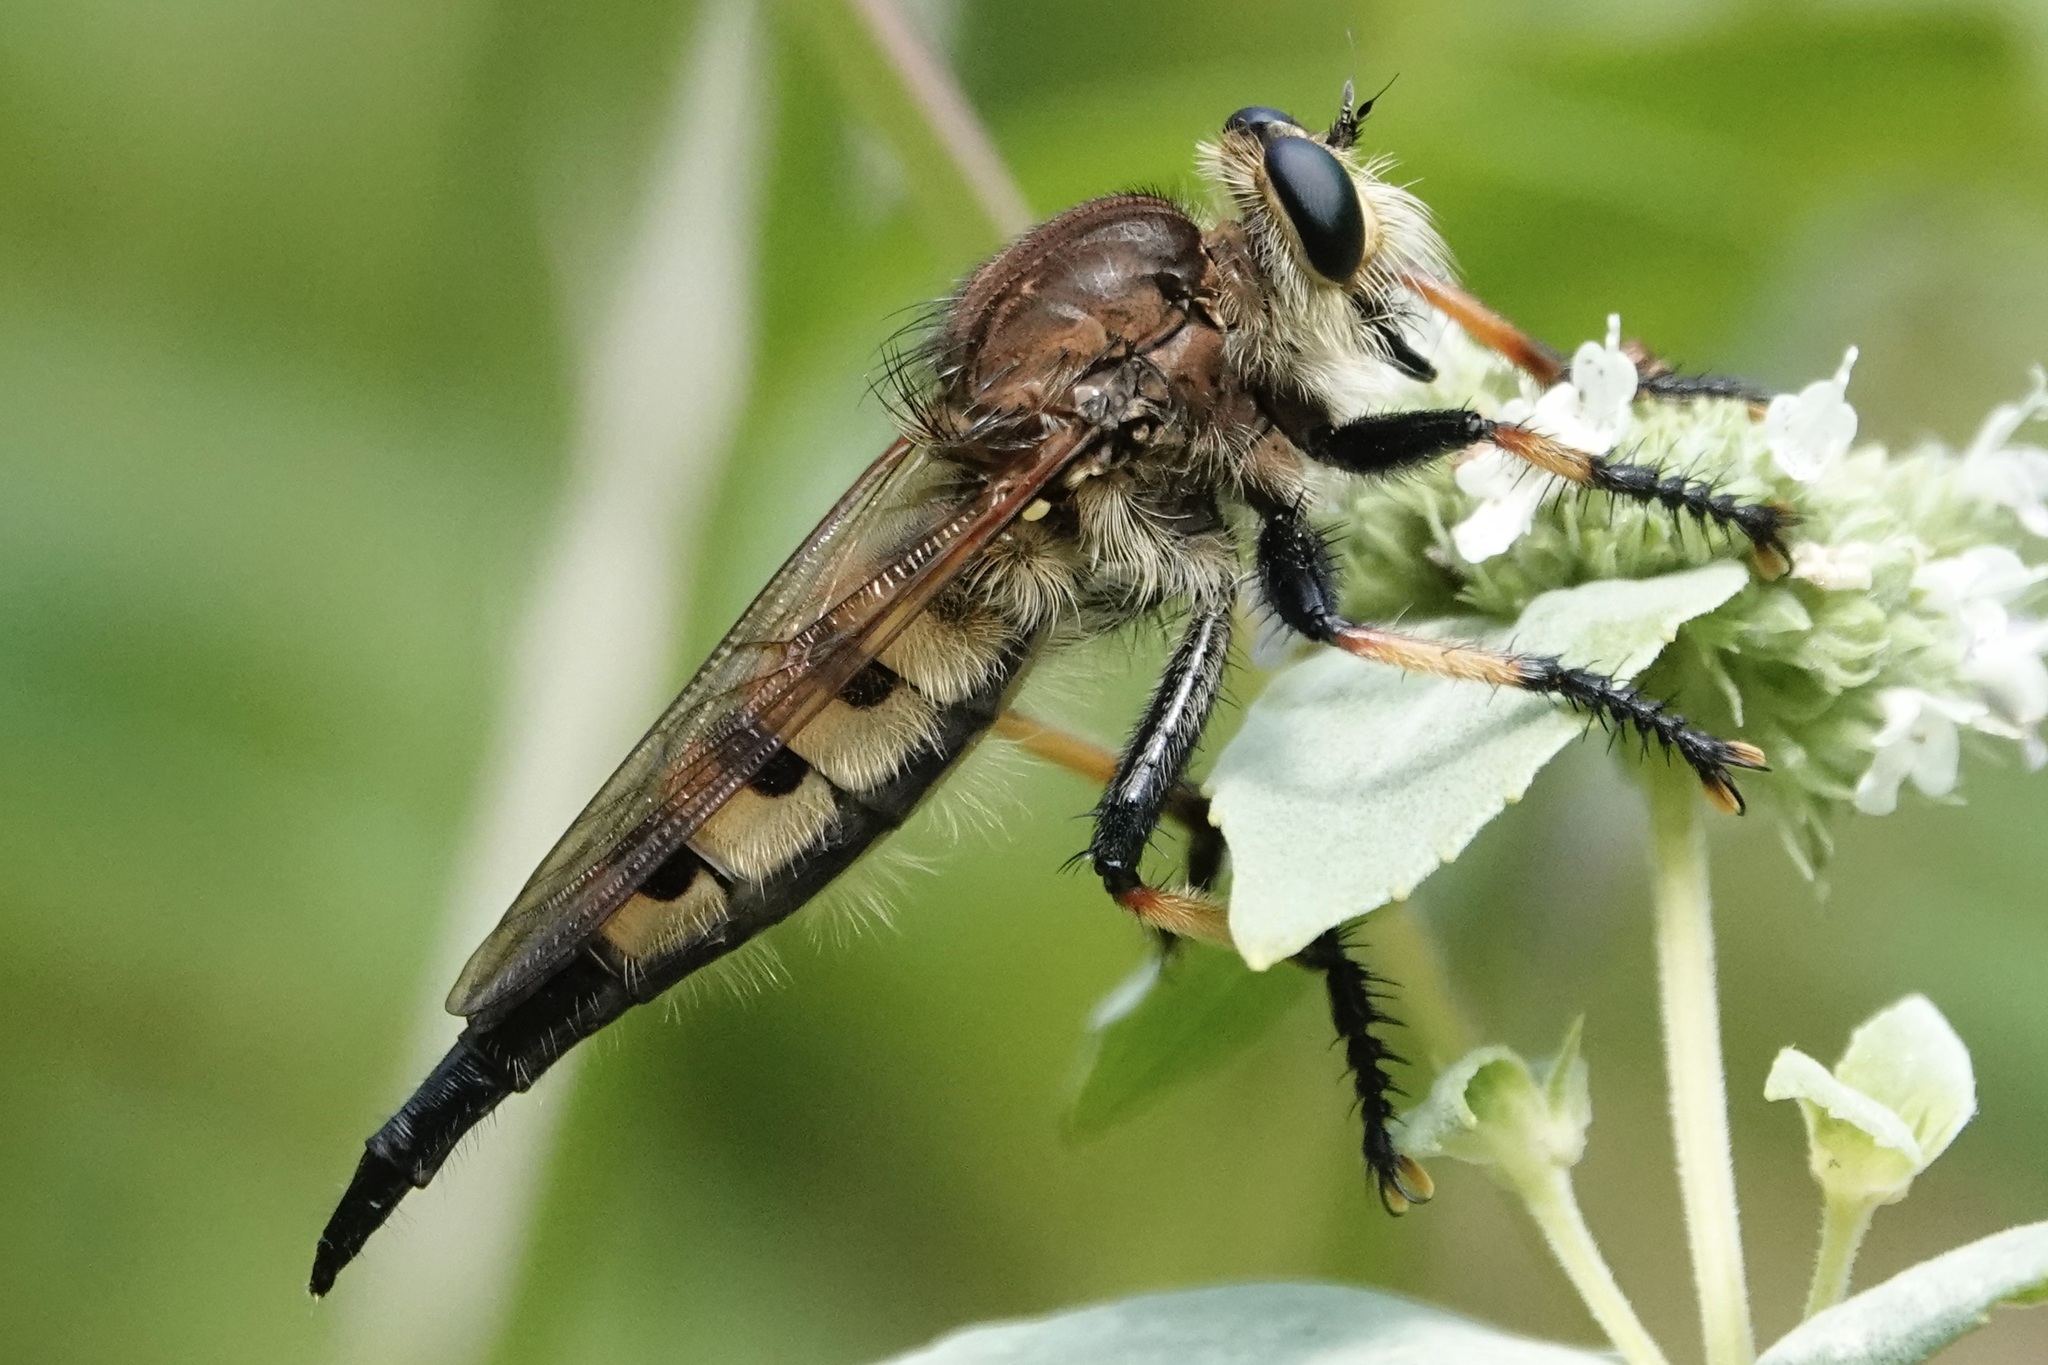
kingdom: Animalia
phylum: Arthropoda
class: Insecta
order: Diptera
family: Asilidae
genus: Promachus
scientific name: Promachus rufipes
